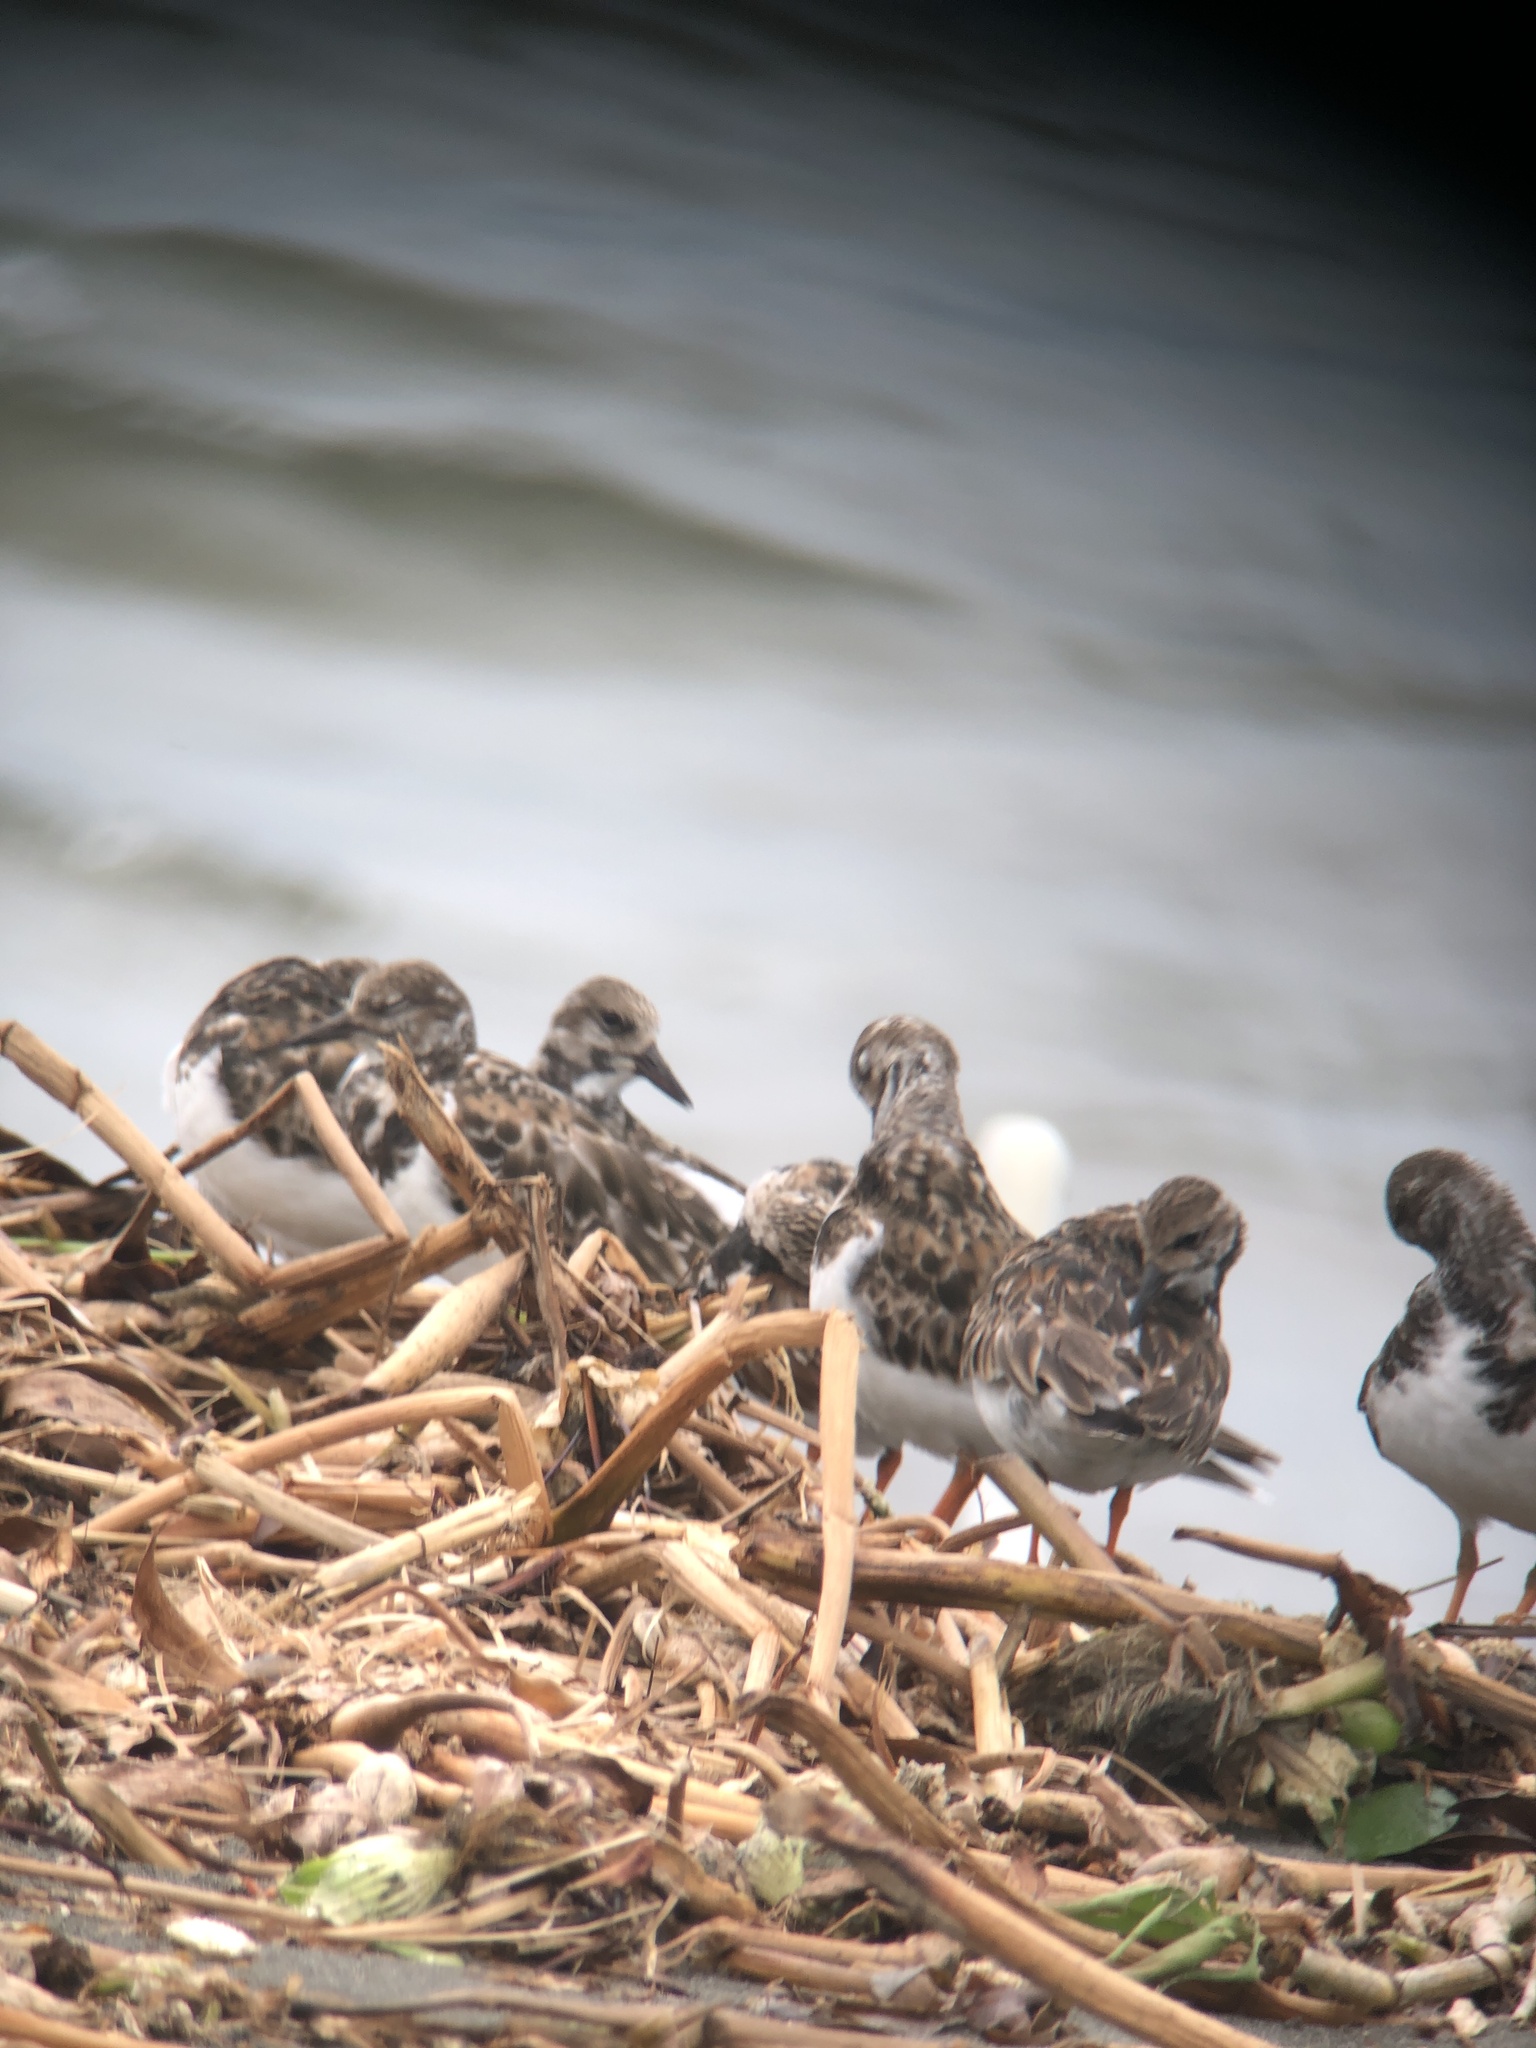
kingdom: Animalia
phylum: Chordata
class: Aves
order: Charadriiformes
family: Scolopacidae
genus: Arenaria
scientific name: Arenaria interpres
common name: Ruddy turnstone
